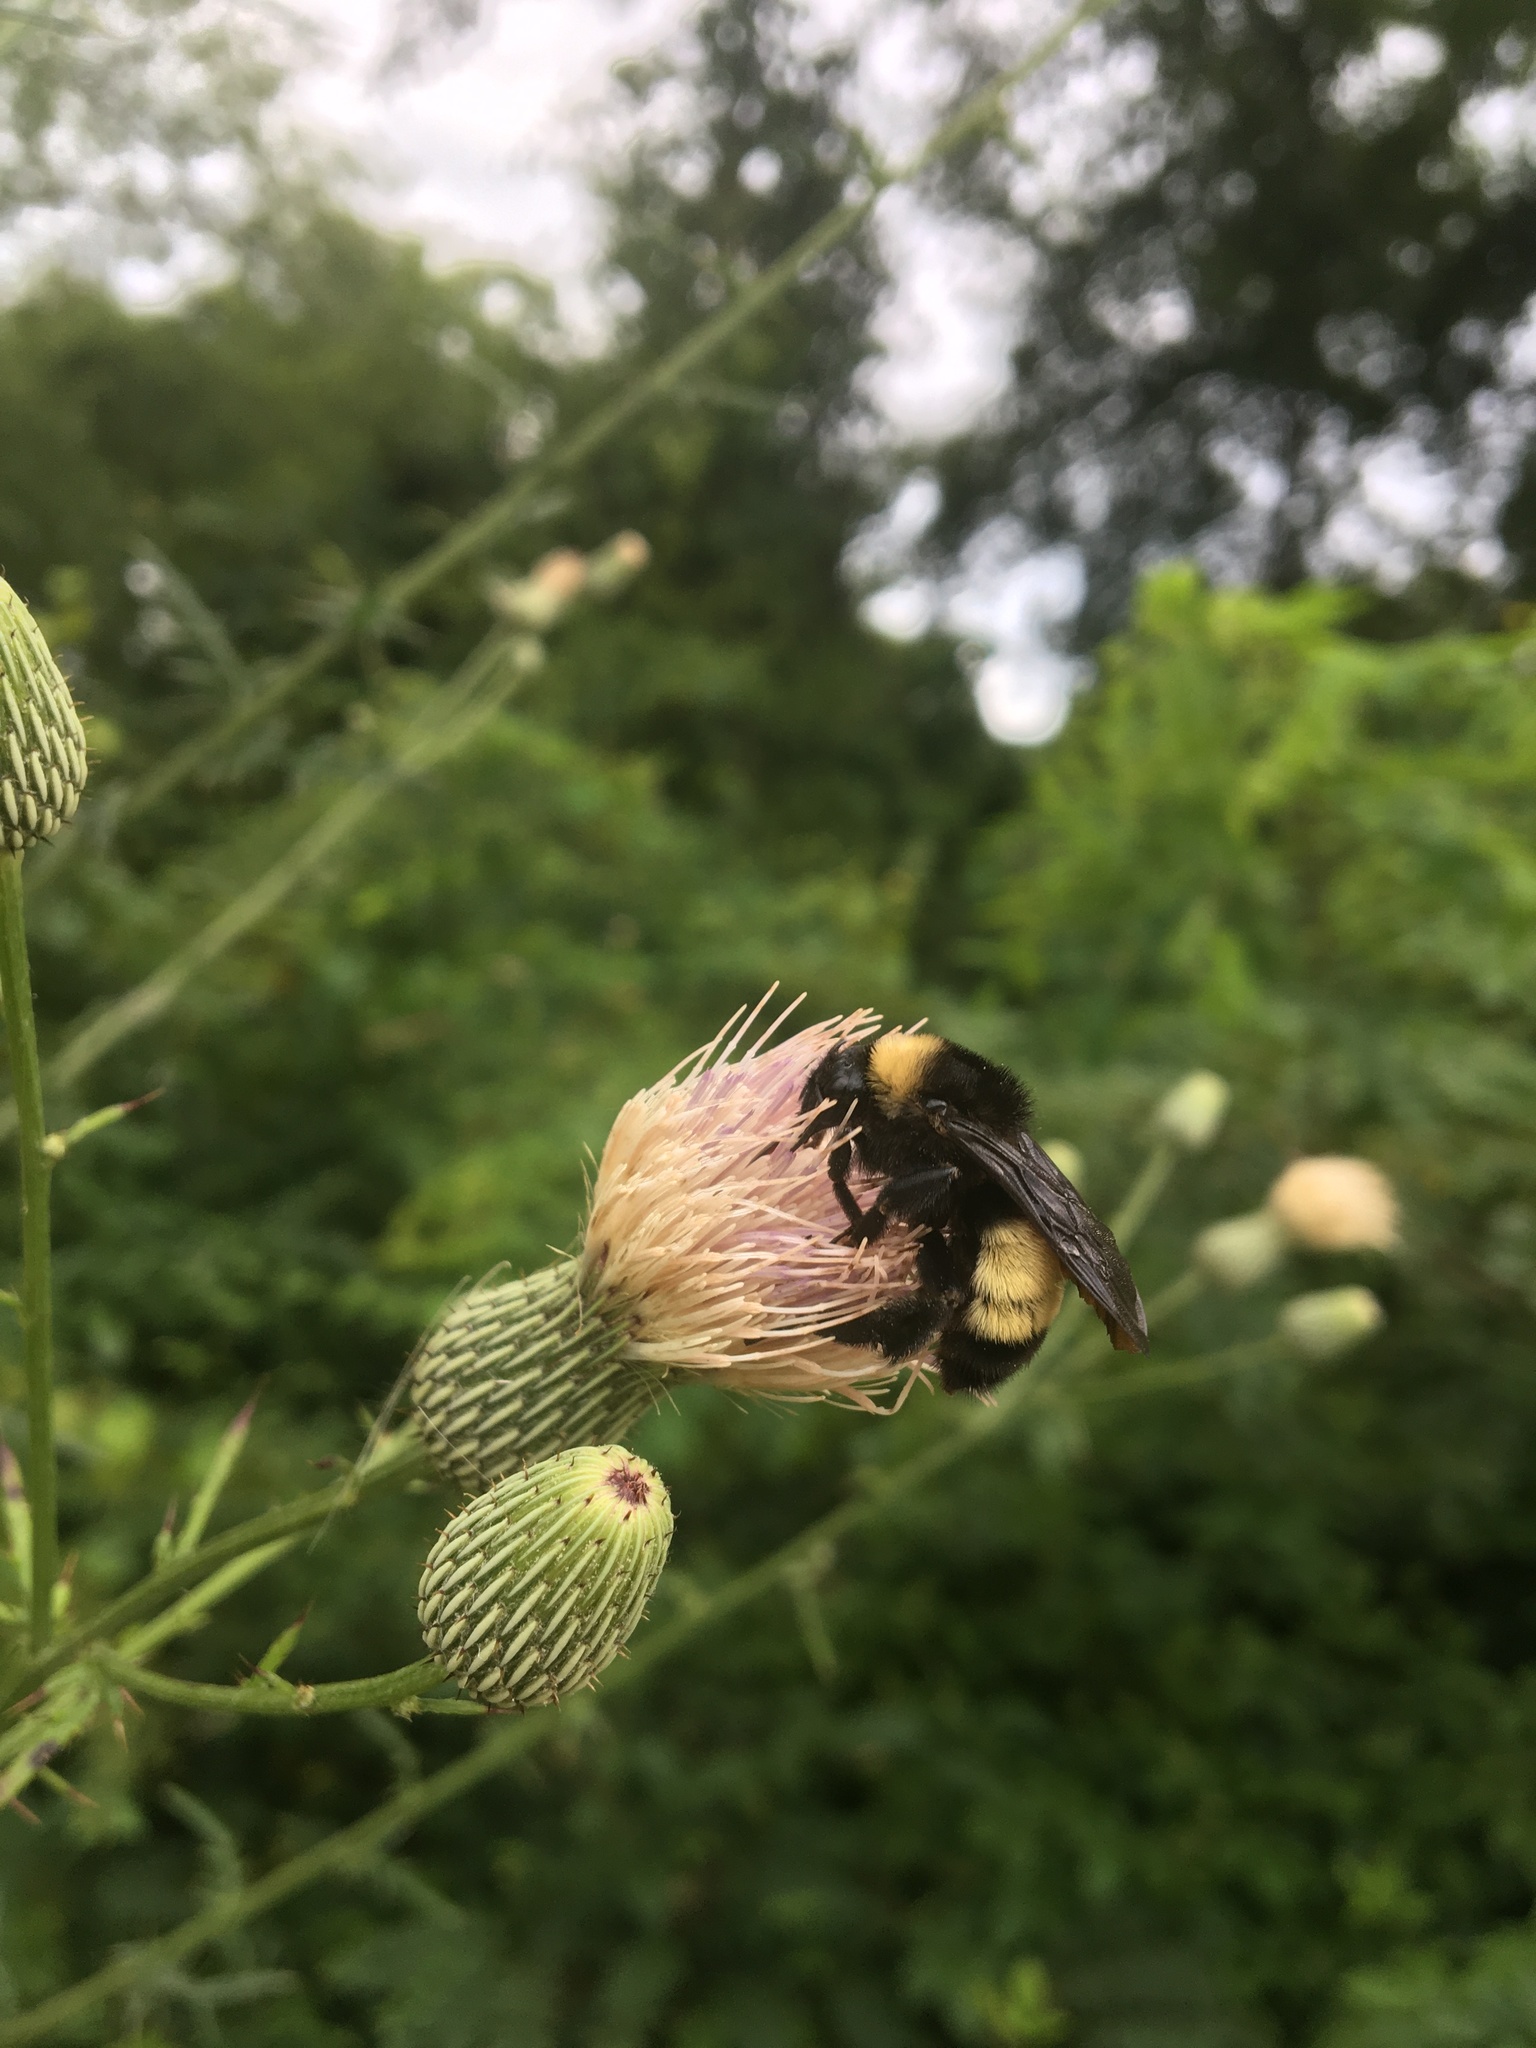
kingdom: Animalia
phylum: Arthropoda
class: Insecta
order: Hymenoptera
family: Apidae
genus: Bombus
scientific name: Bombus pensylvanicus
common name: Bumble bee
